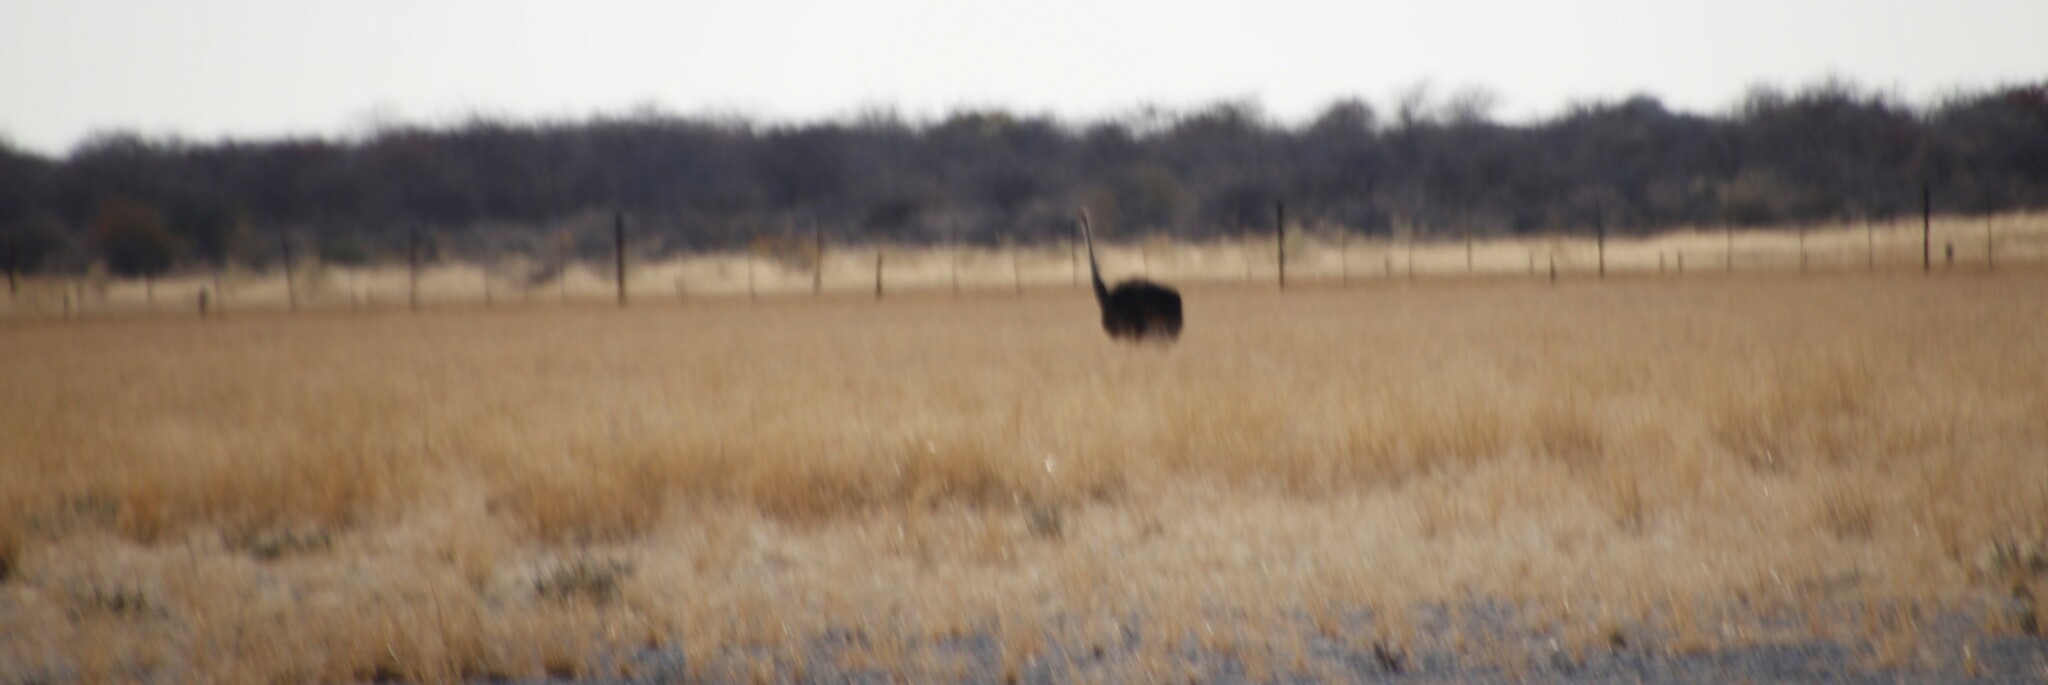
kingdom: Animalia
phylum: Chordata
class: Aves
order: Struthioniformes
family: Struthionidae
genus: Struthio
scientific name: Struthio camelus
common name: Common ostrich
